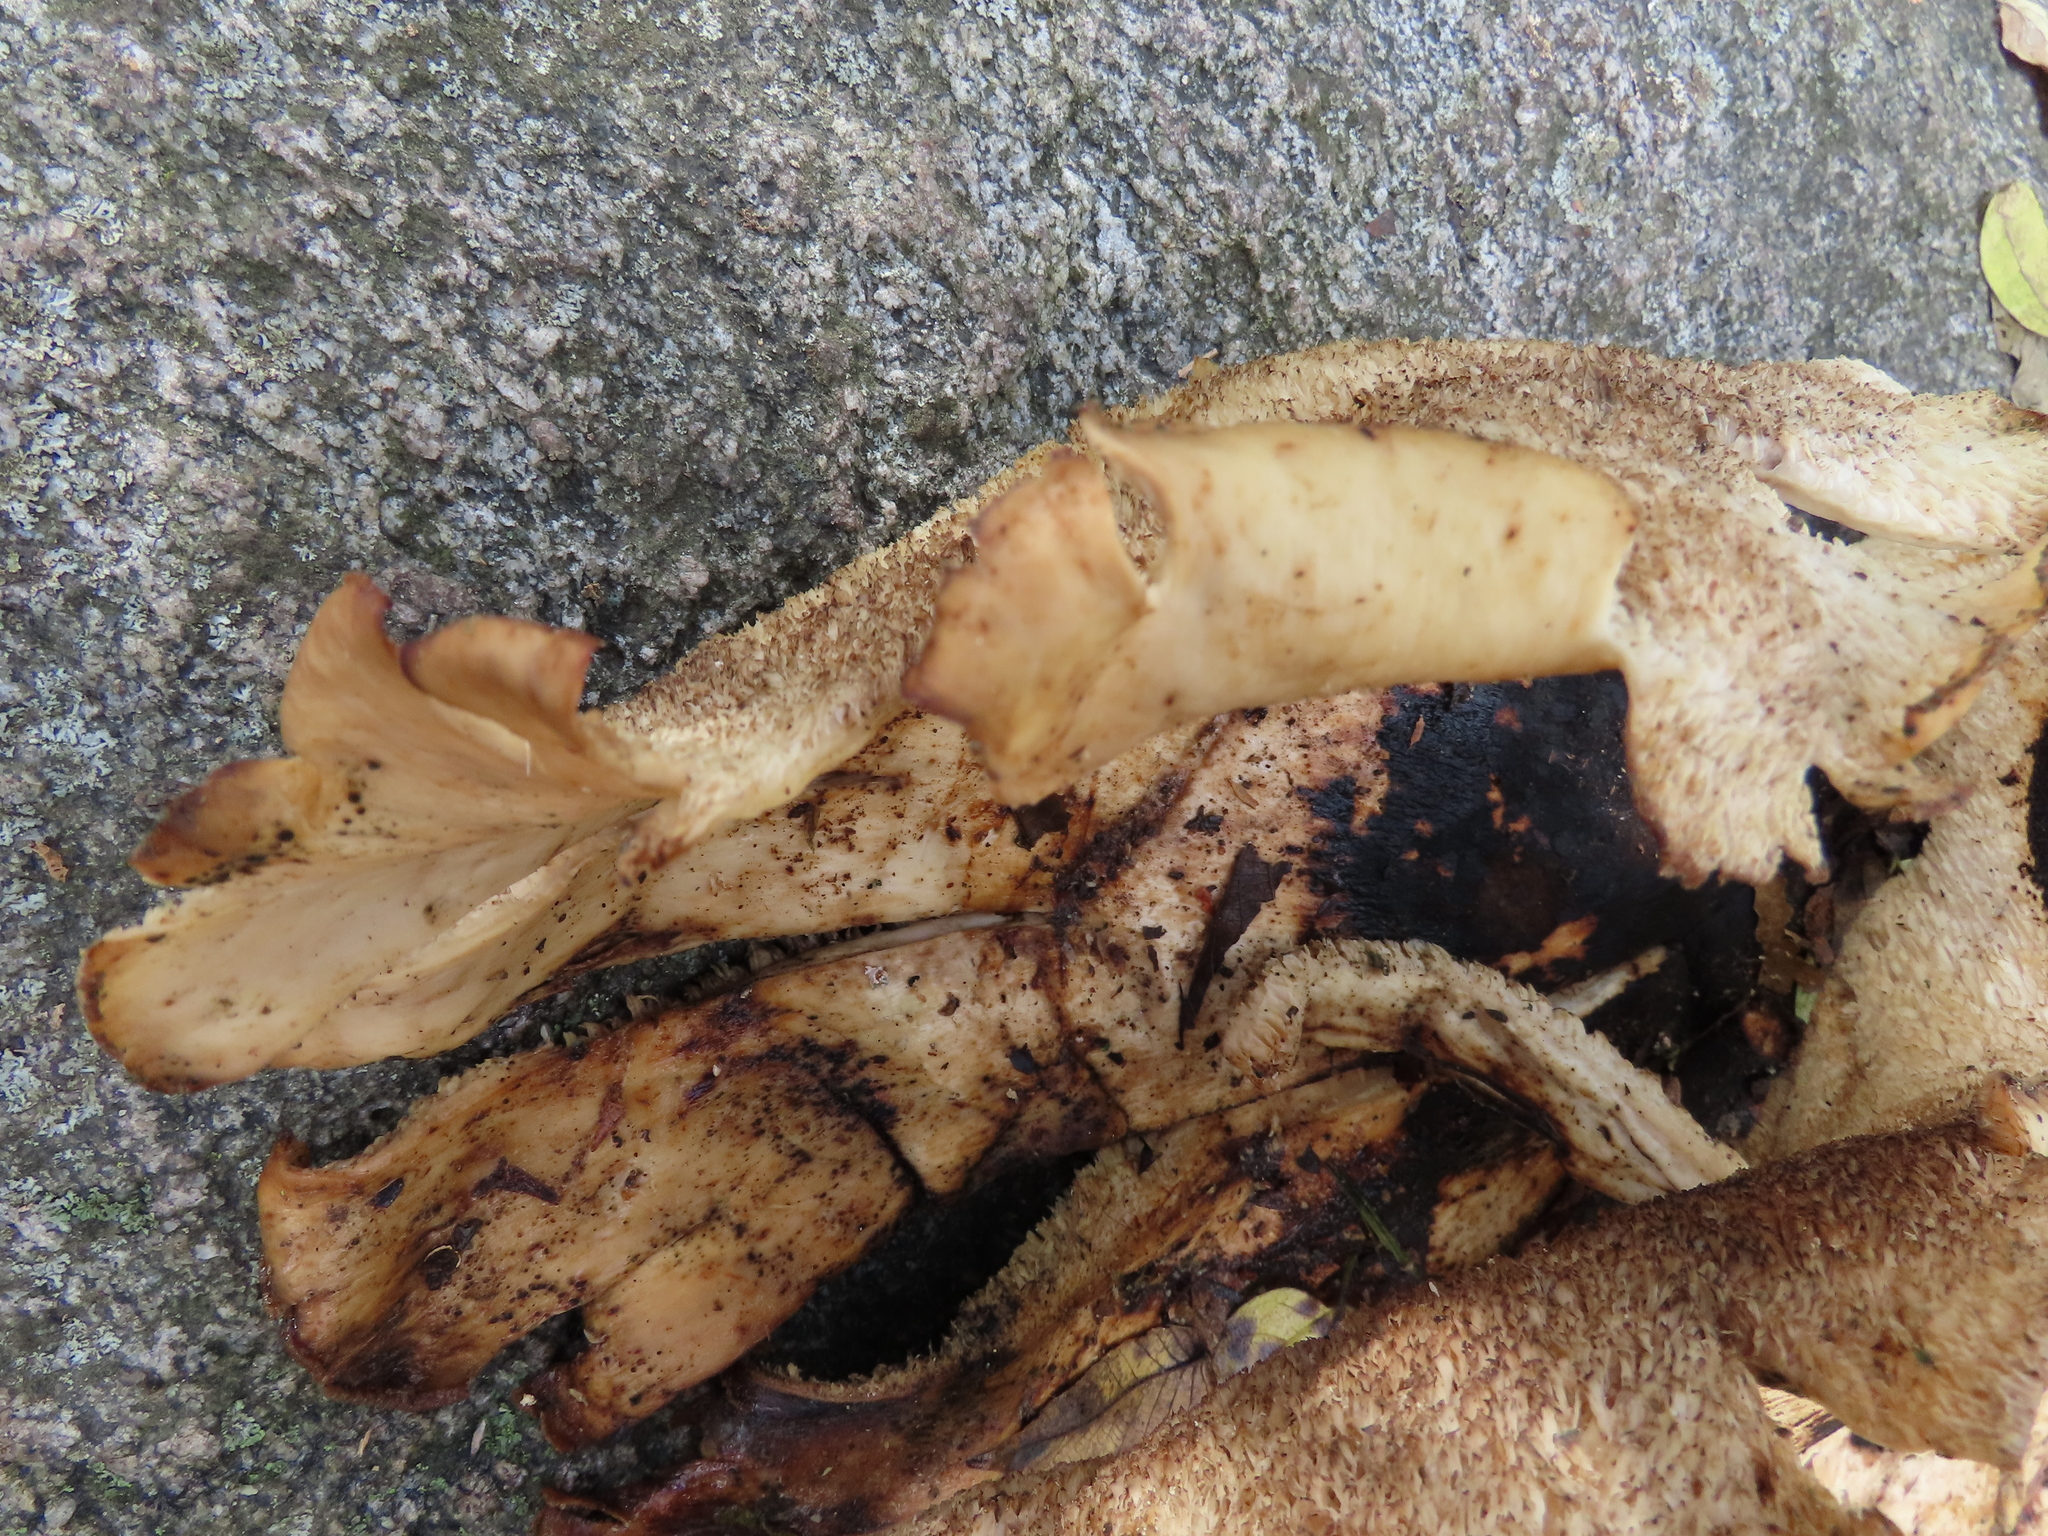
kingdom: Fungi
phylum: Basidiomycota
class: Agaricomycetes
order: Polyporales
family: Polyporaceae
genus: Cerioporus
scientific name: Cerioporus squamosus
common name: Dryad's saddle
